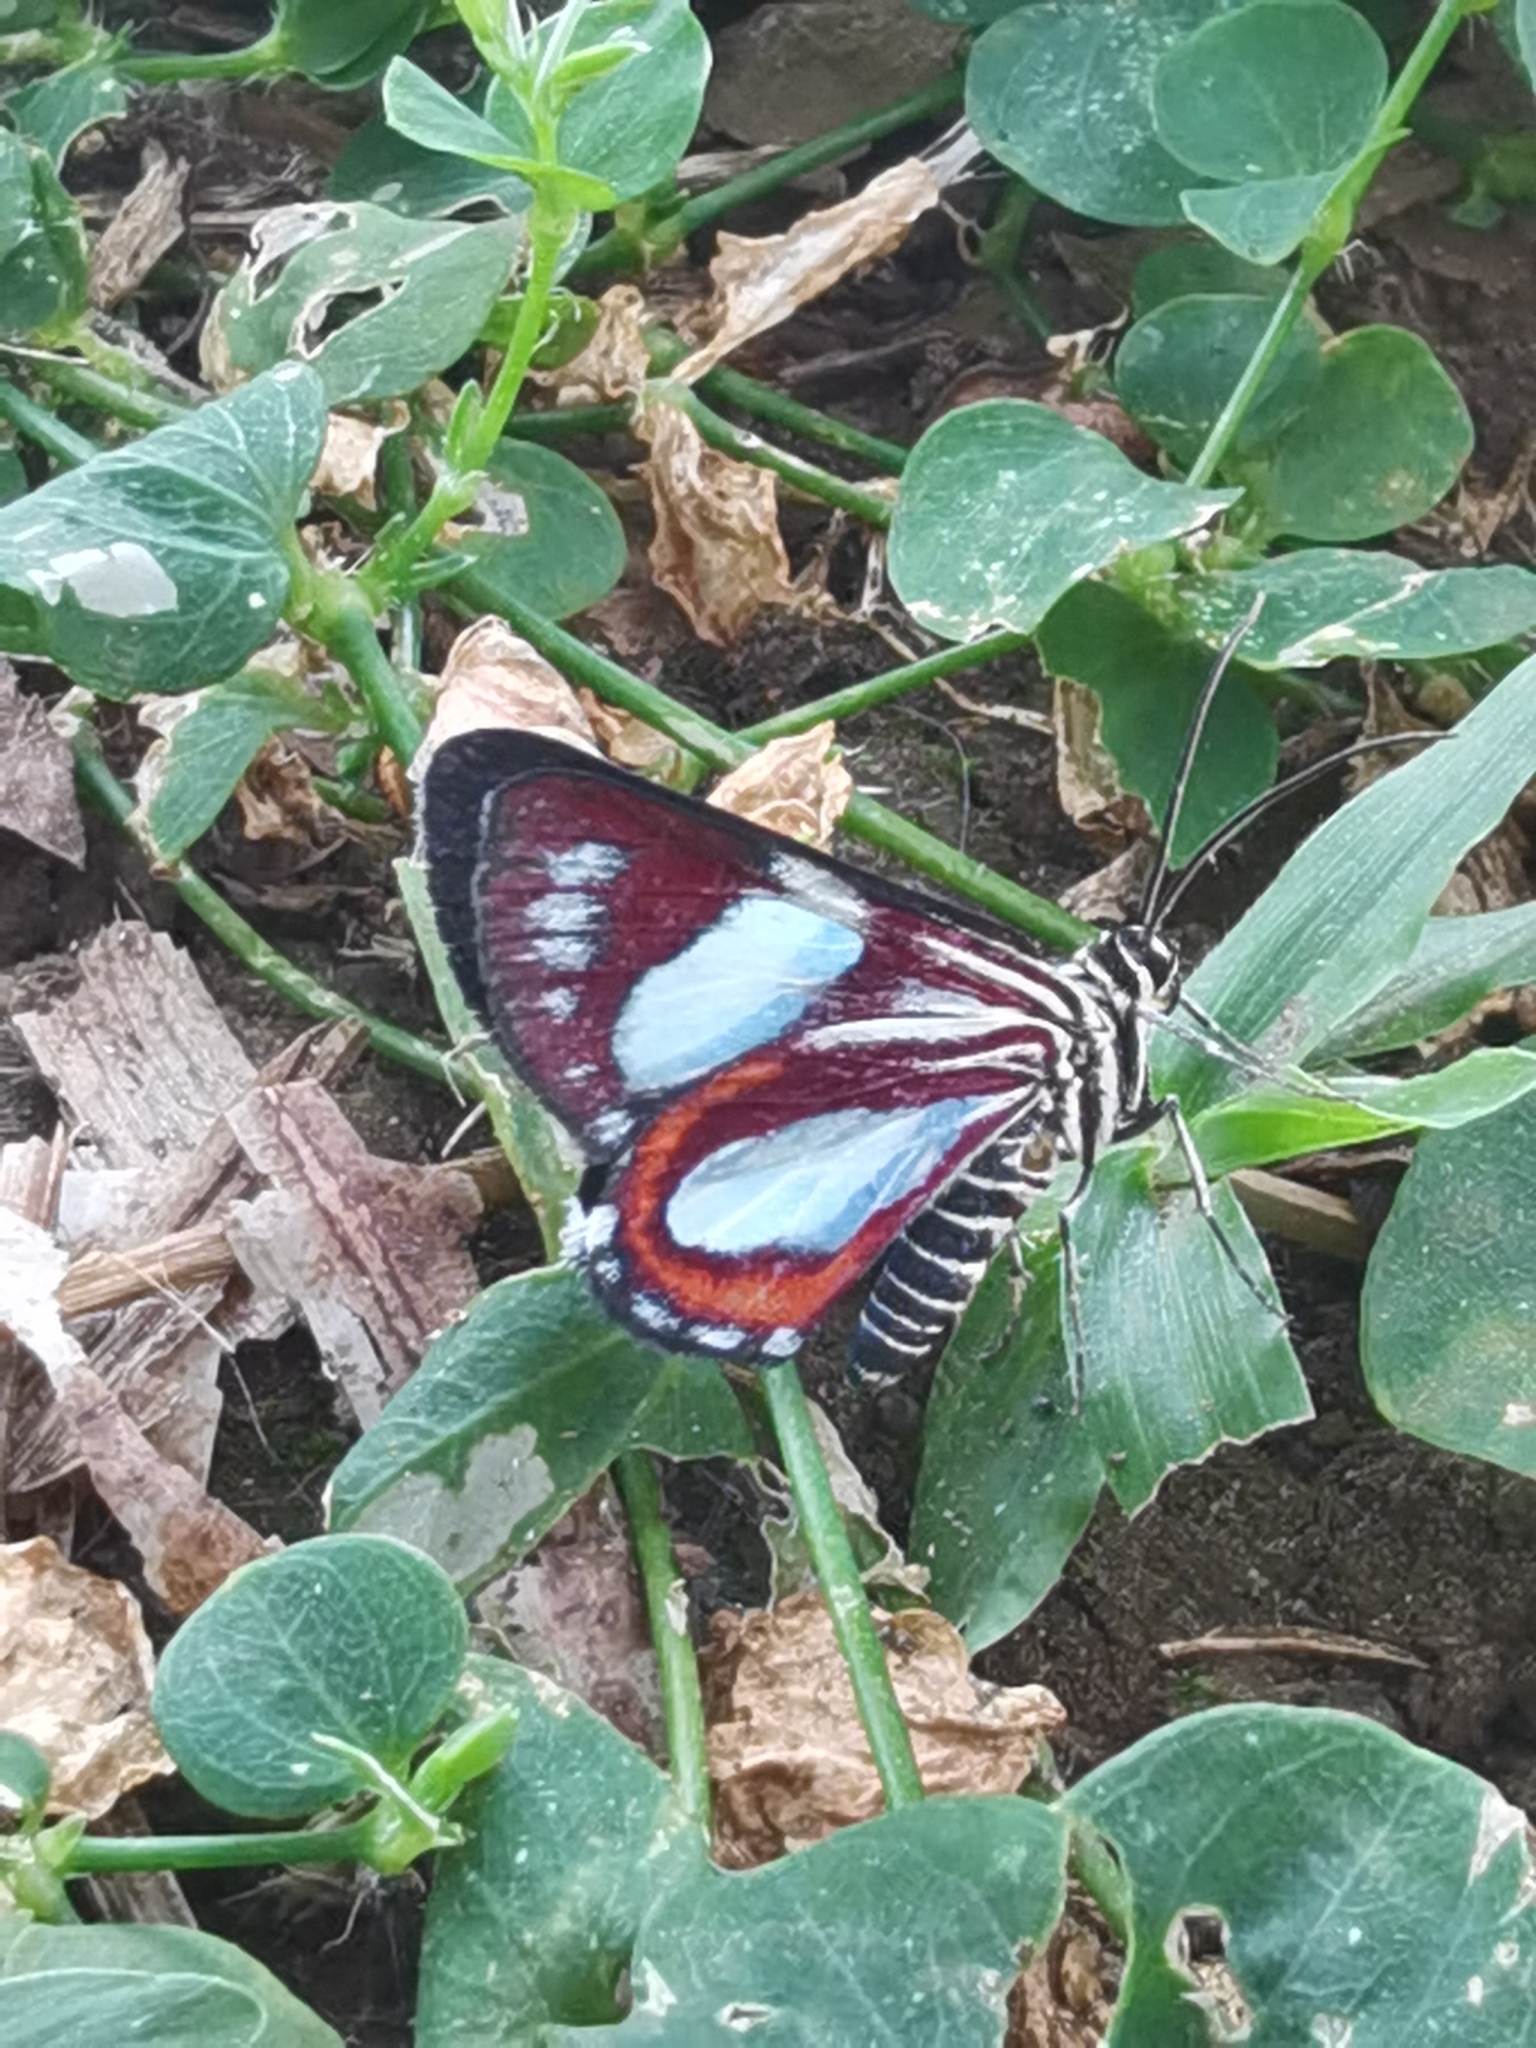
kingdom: Animalia
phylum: Arthropoda
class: Insecta
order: Lepidoptera
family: Geometridae
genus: Trocherateina
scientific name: Trocherateina cachara
